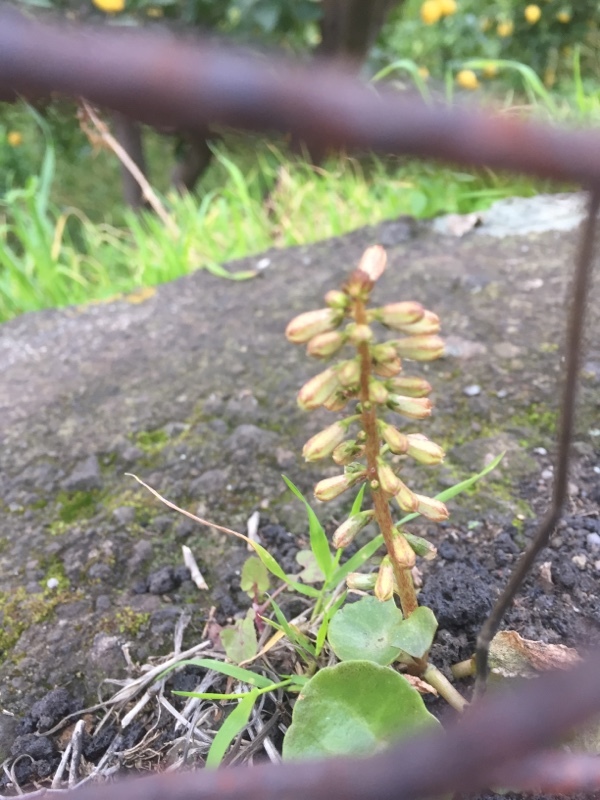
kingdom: Plantae
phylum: Tracheophyta
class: Magnoliopsida
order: Saxifragales
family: Crassulaceae
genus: Umbilicus
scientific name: Umbilicus rupestris
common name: Navelwort
